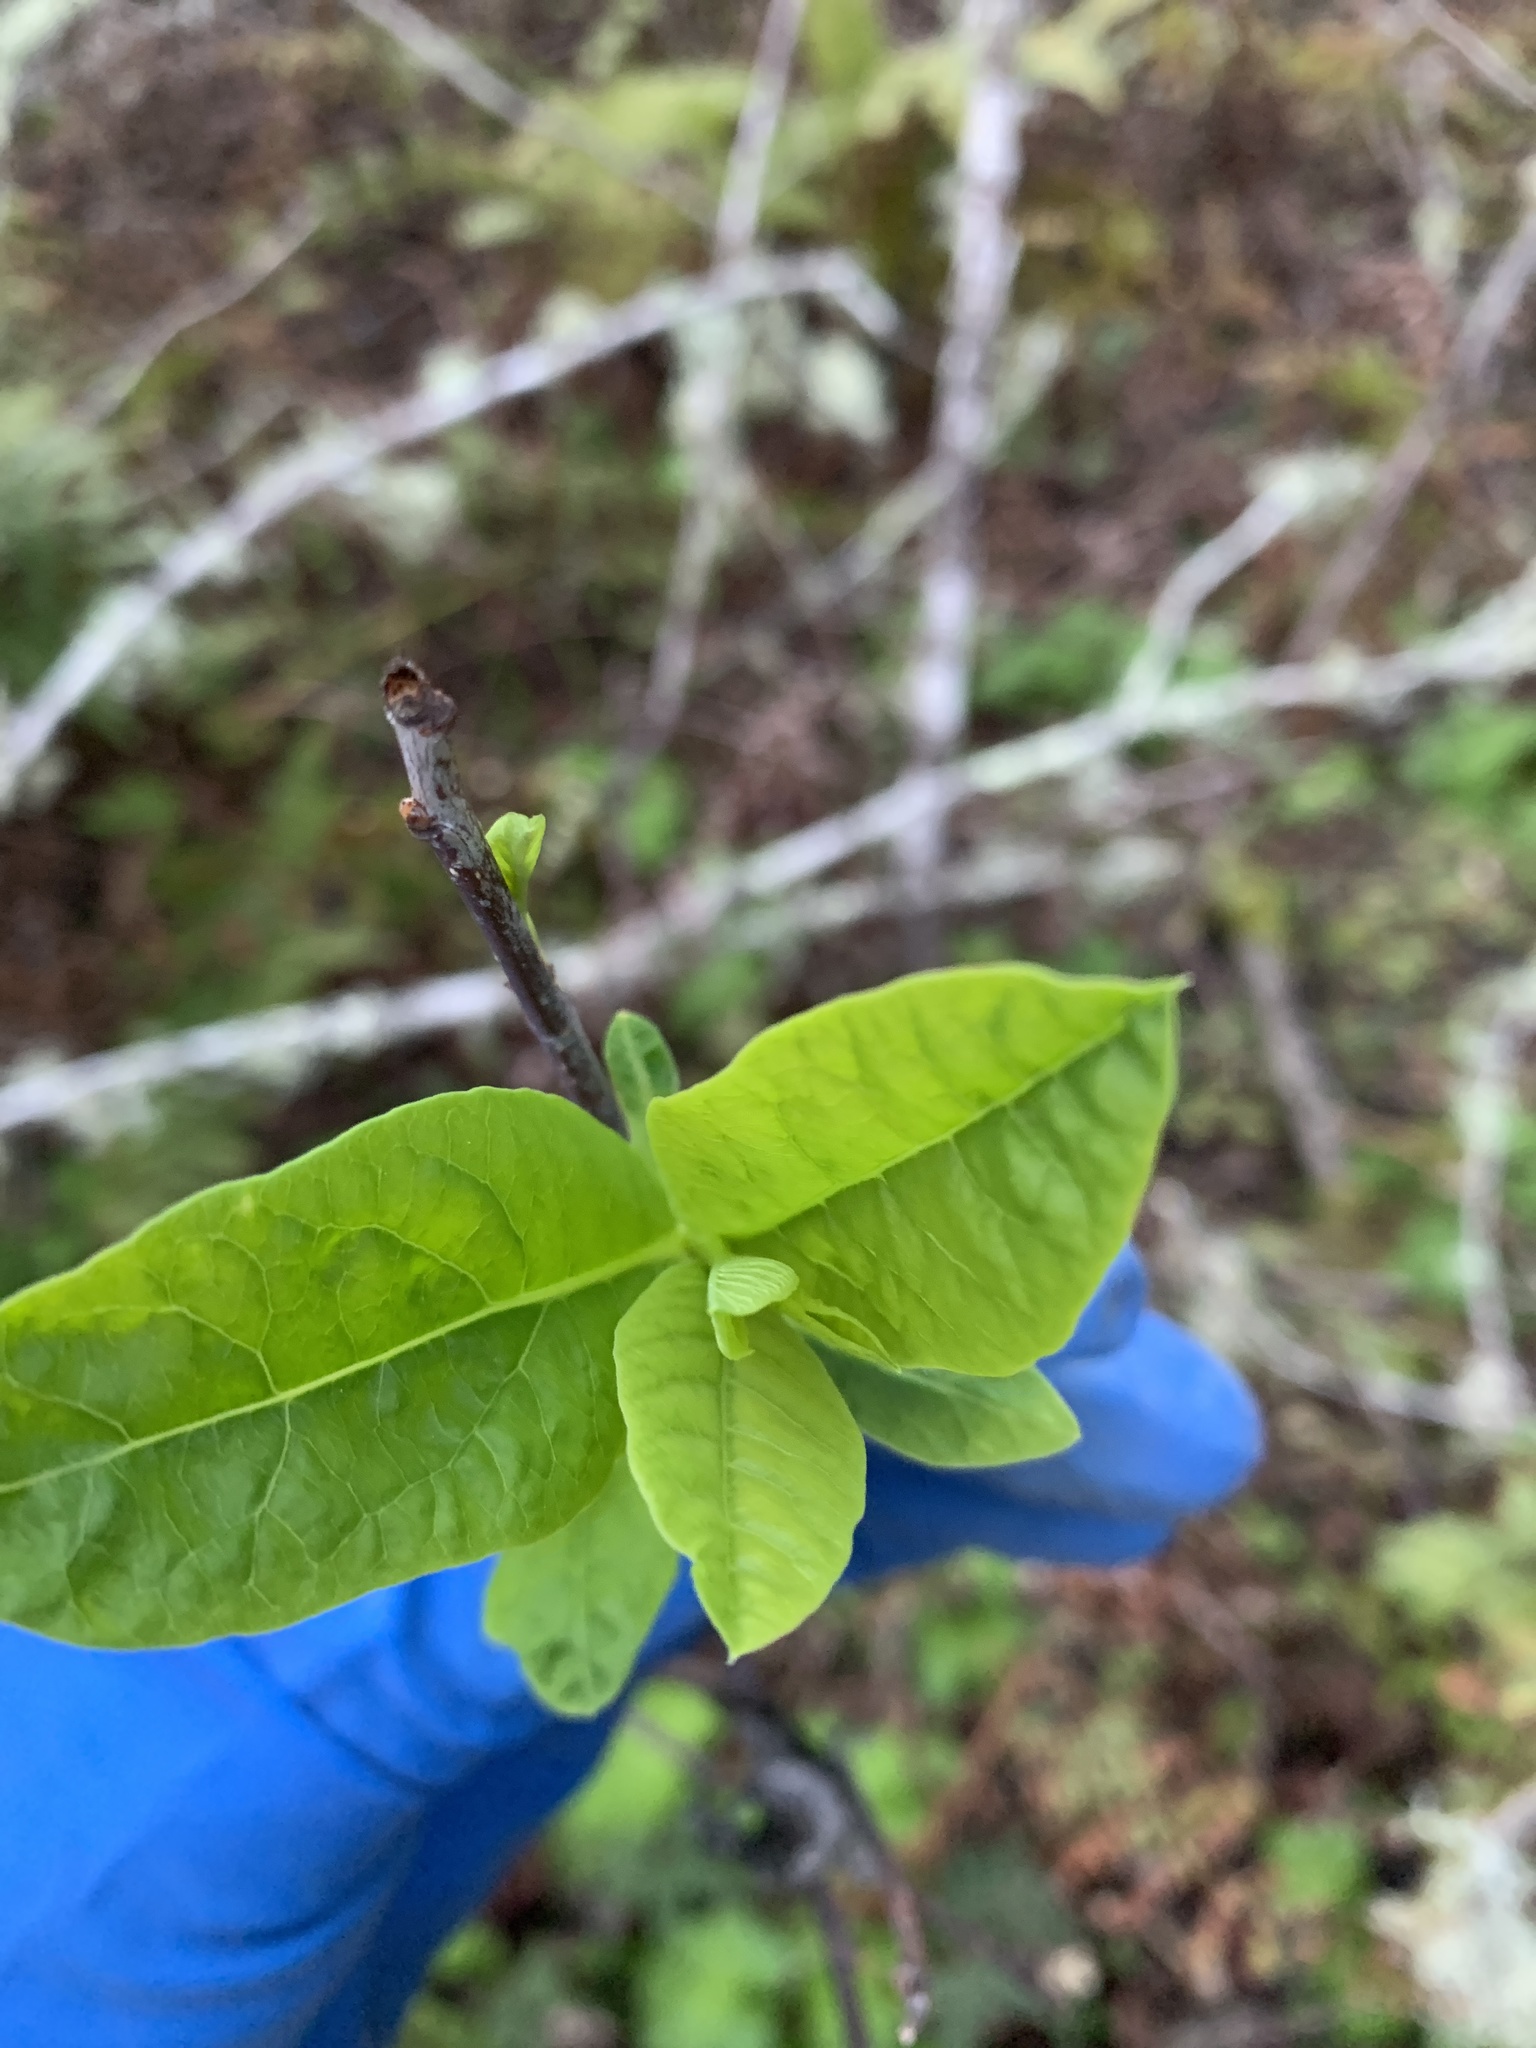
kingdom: Plantae
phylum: Tracheophyta
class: Magnoliopsida
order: Rosales
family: Rosaceae
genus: Oemleria
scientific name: Oemleria cerasiformis
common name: Osoberry
